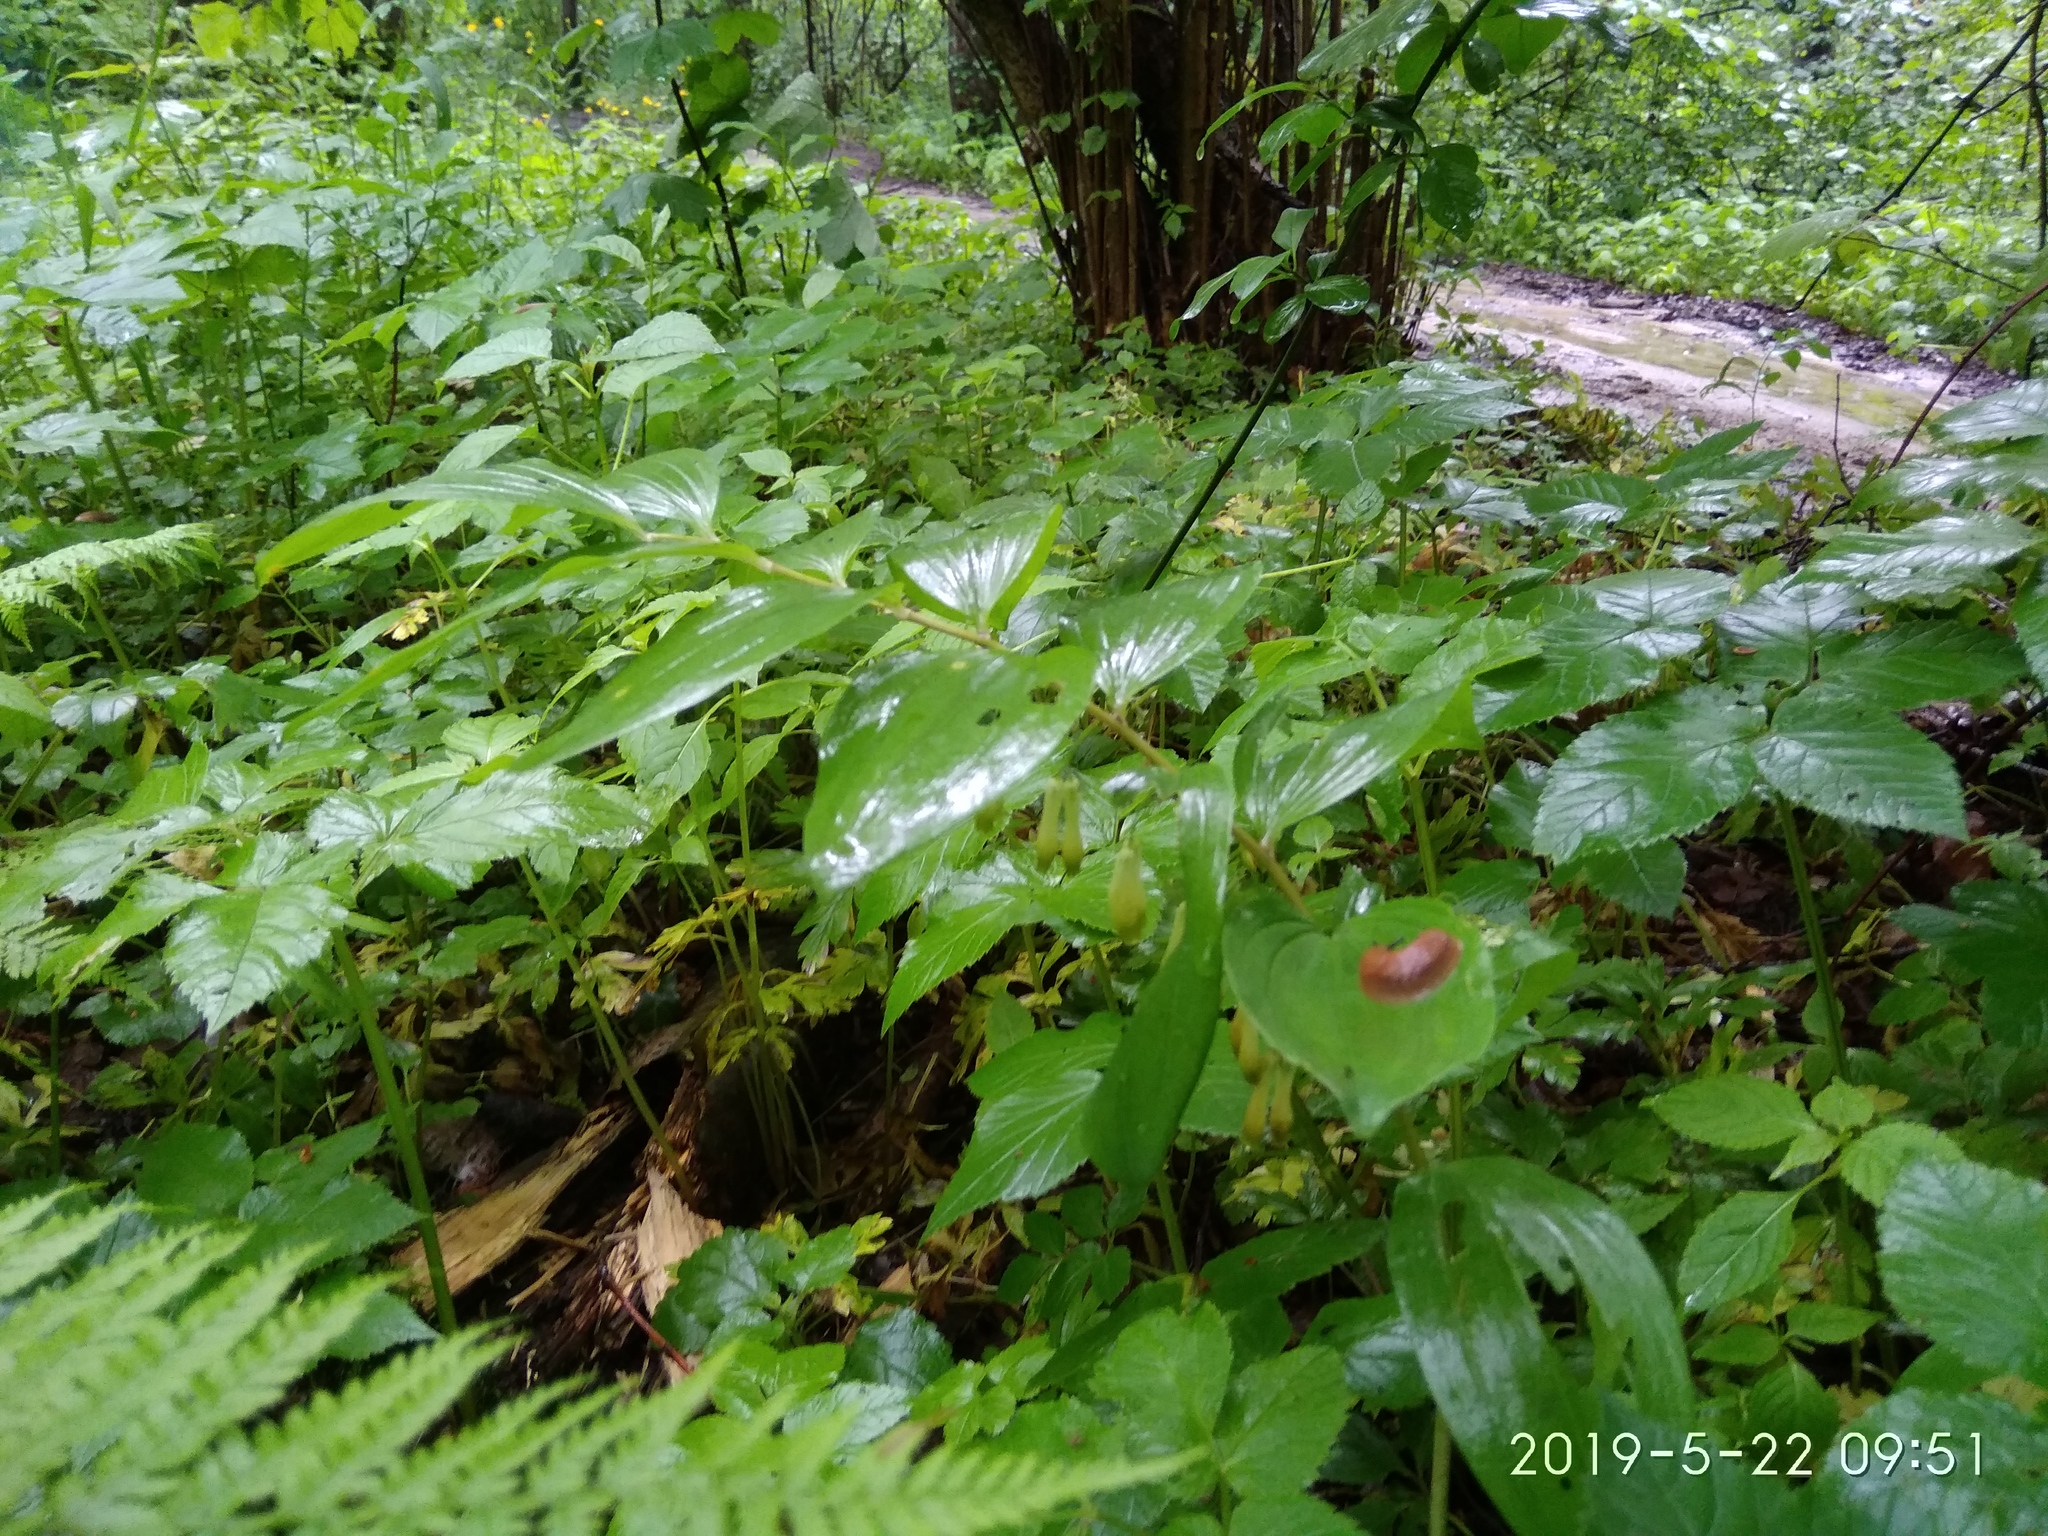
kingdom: Plantae
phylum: Tracheophyta
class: Liliopsida
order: Asparagales
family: Asparagaceae
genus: Polygonatum
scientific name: Polygonatum multiflorum
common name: Solomon's-seal
